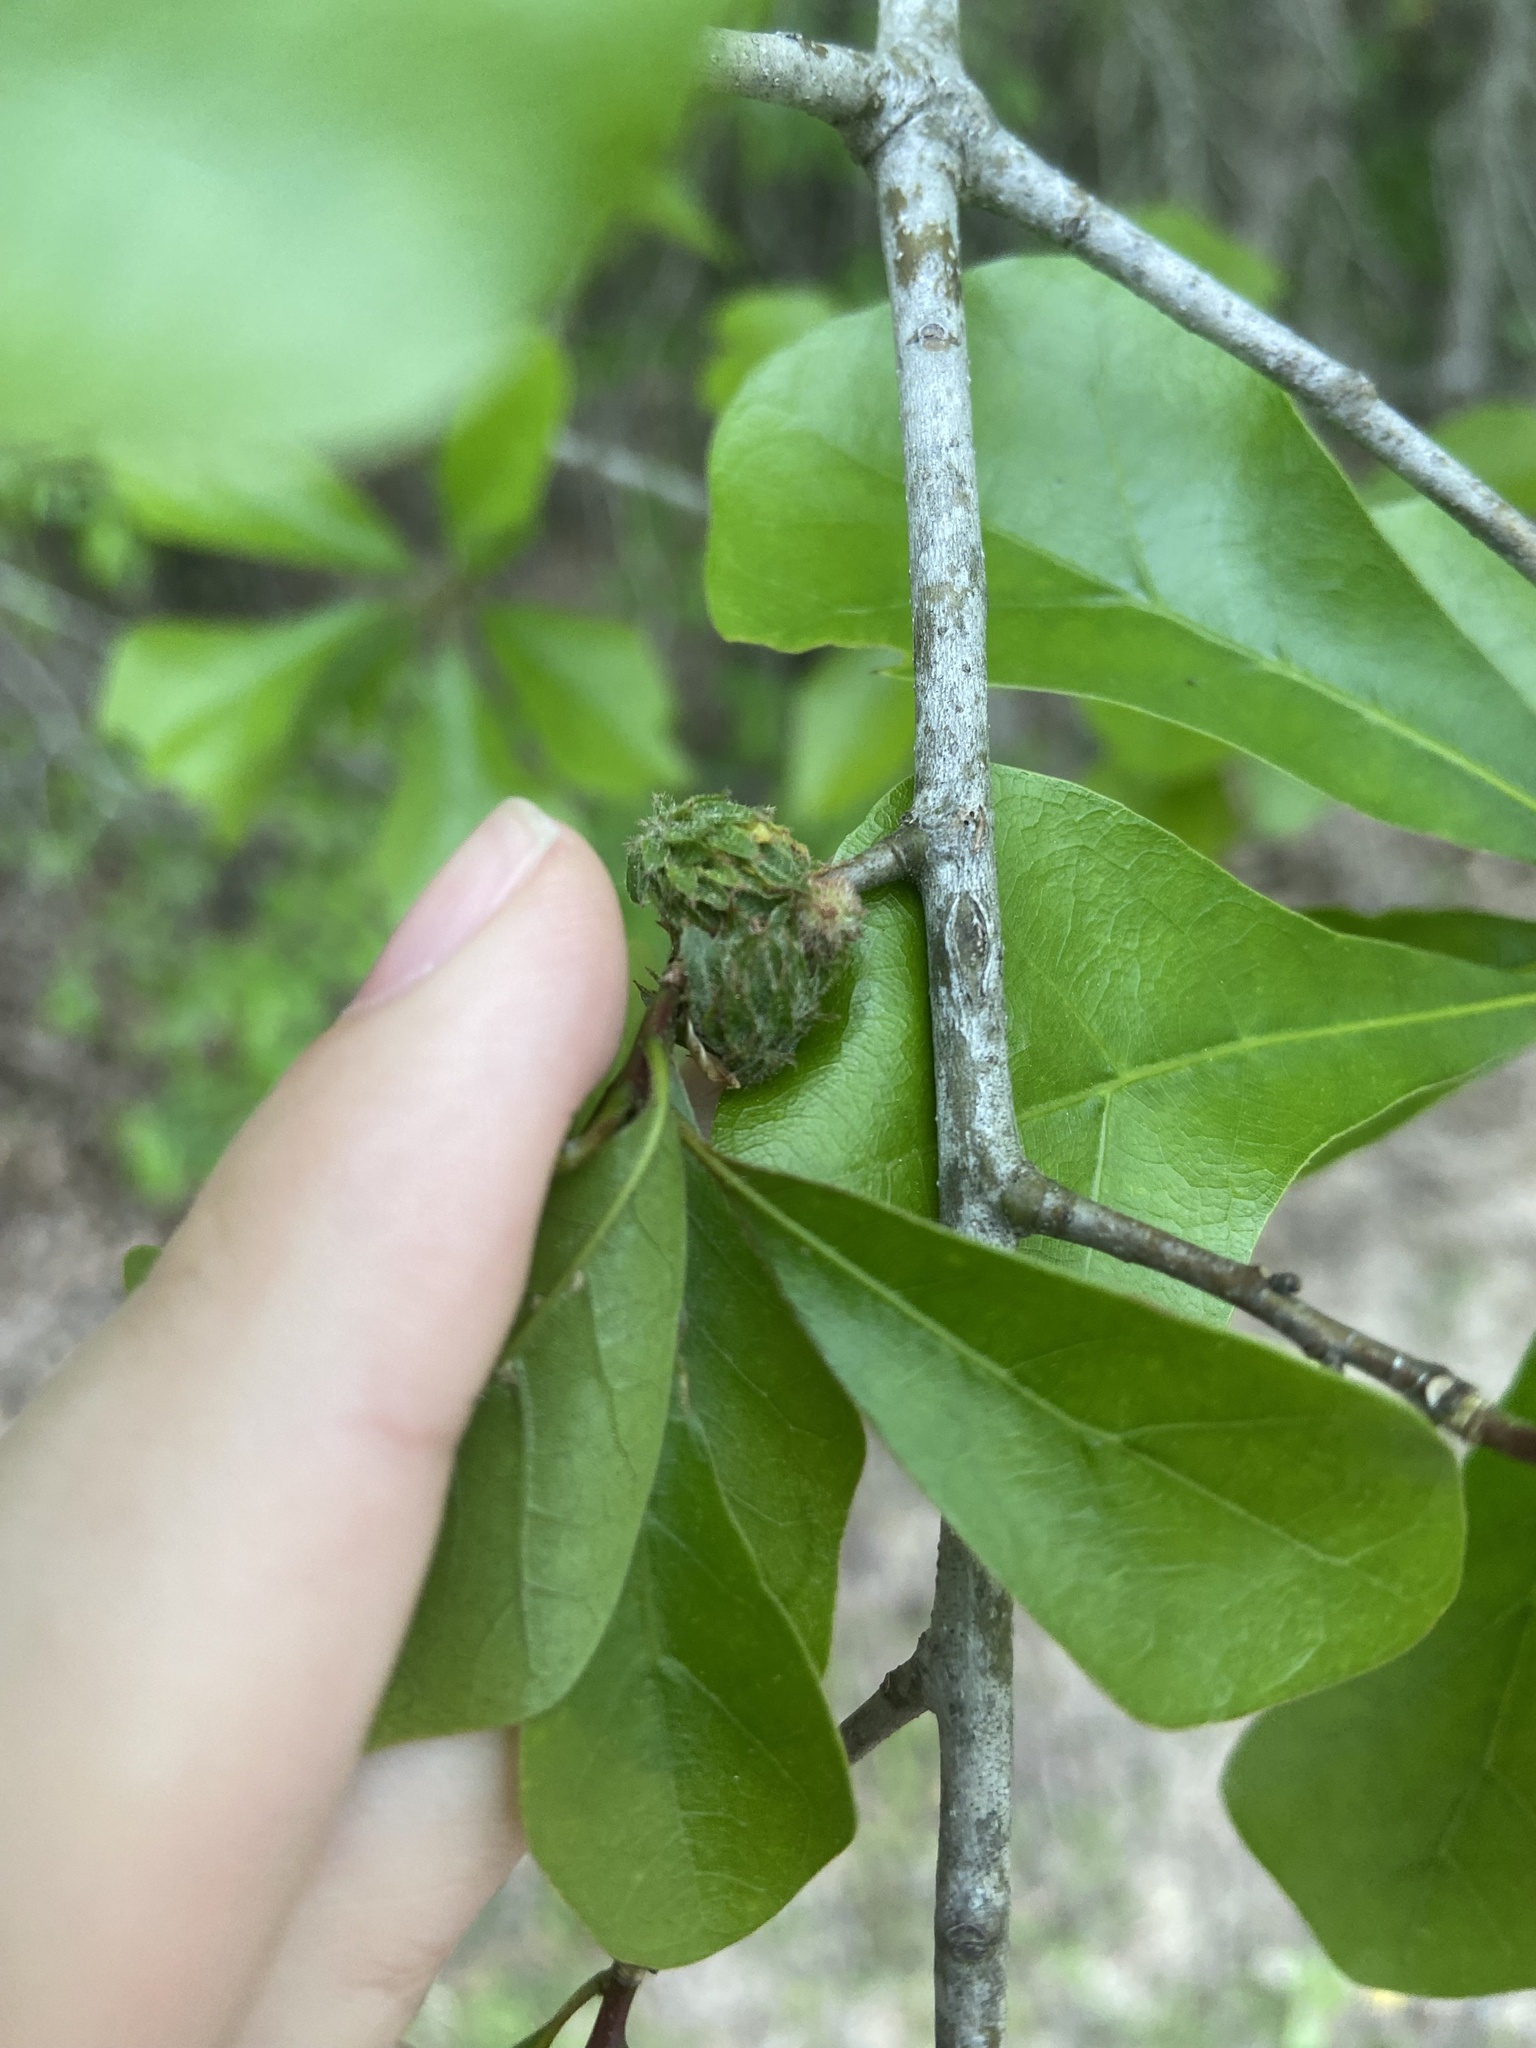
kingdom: Animalia
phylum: Arthropoda
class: Insecta
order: Hymenoptera
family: Cynipidae
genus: Dryocosmus
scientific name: Dryocosmus
